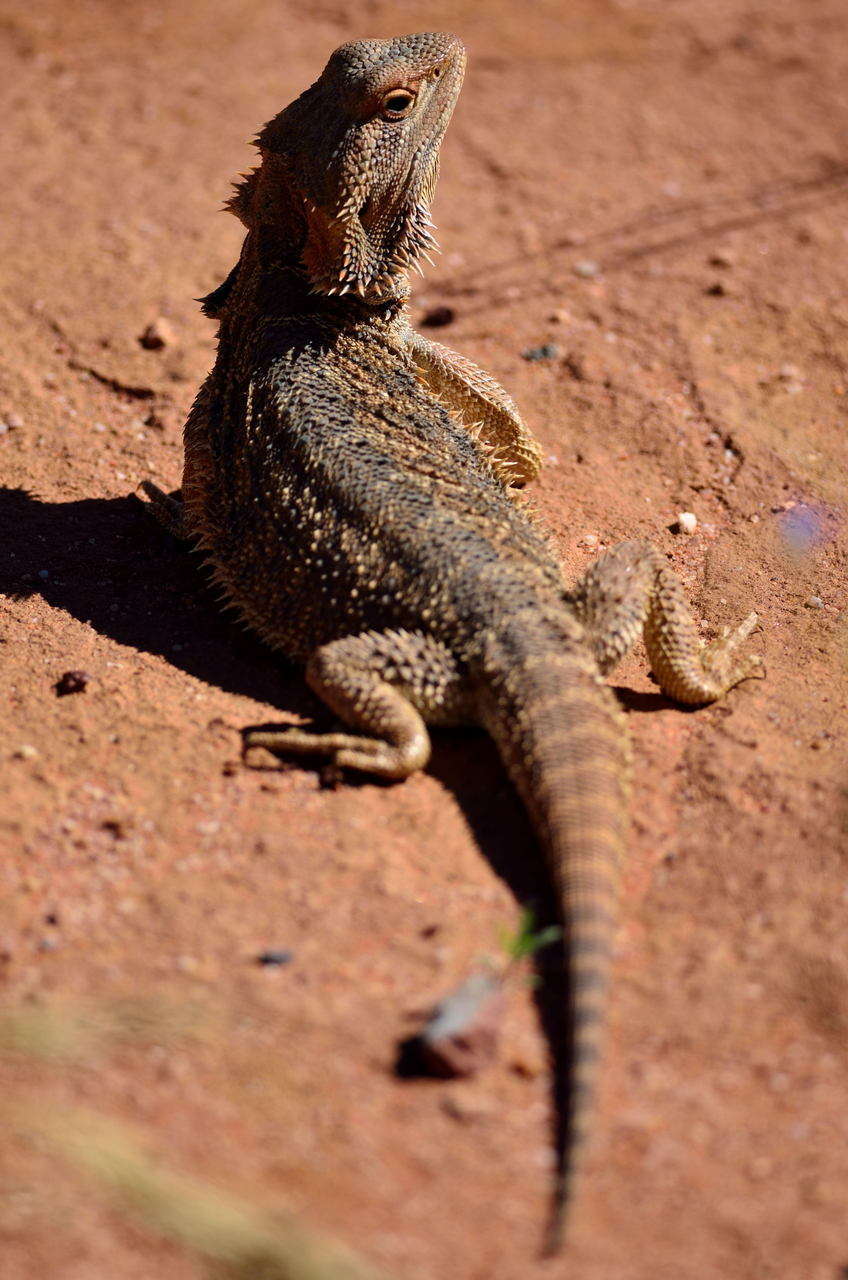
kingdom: Animalia
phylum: Chordata
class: Squamata
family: Agamidae
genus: Pogona
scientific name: Pogona vitticeps
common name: Central bearded dragon
